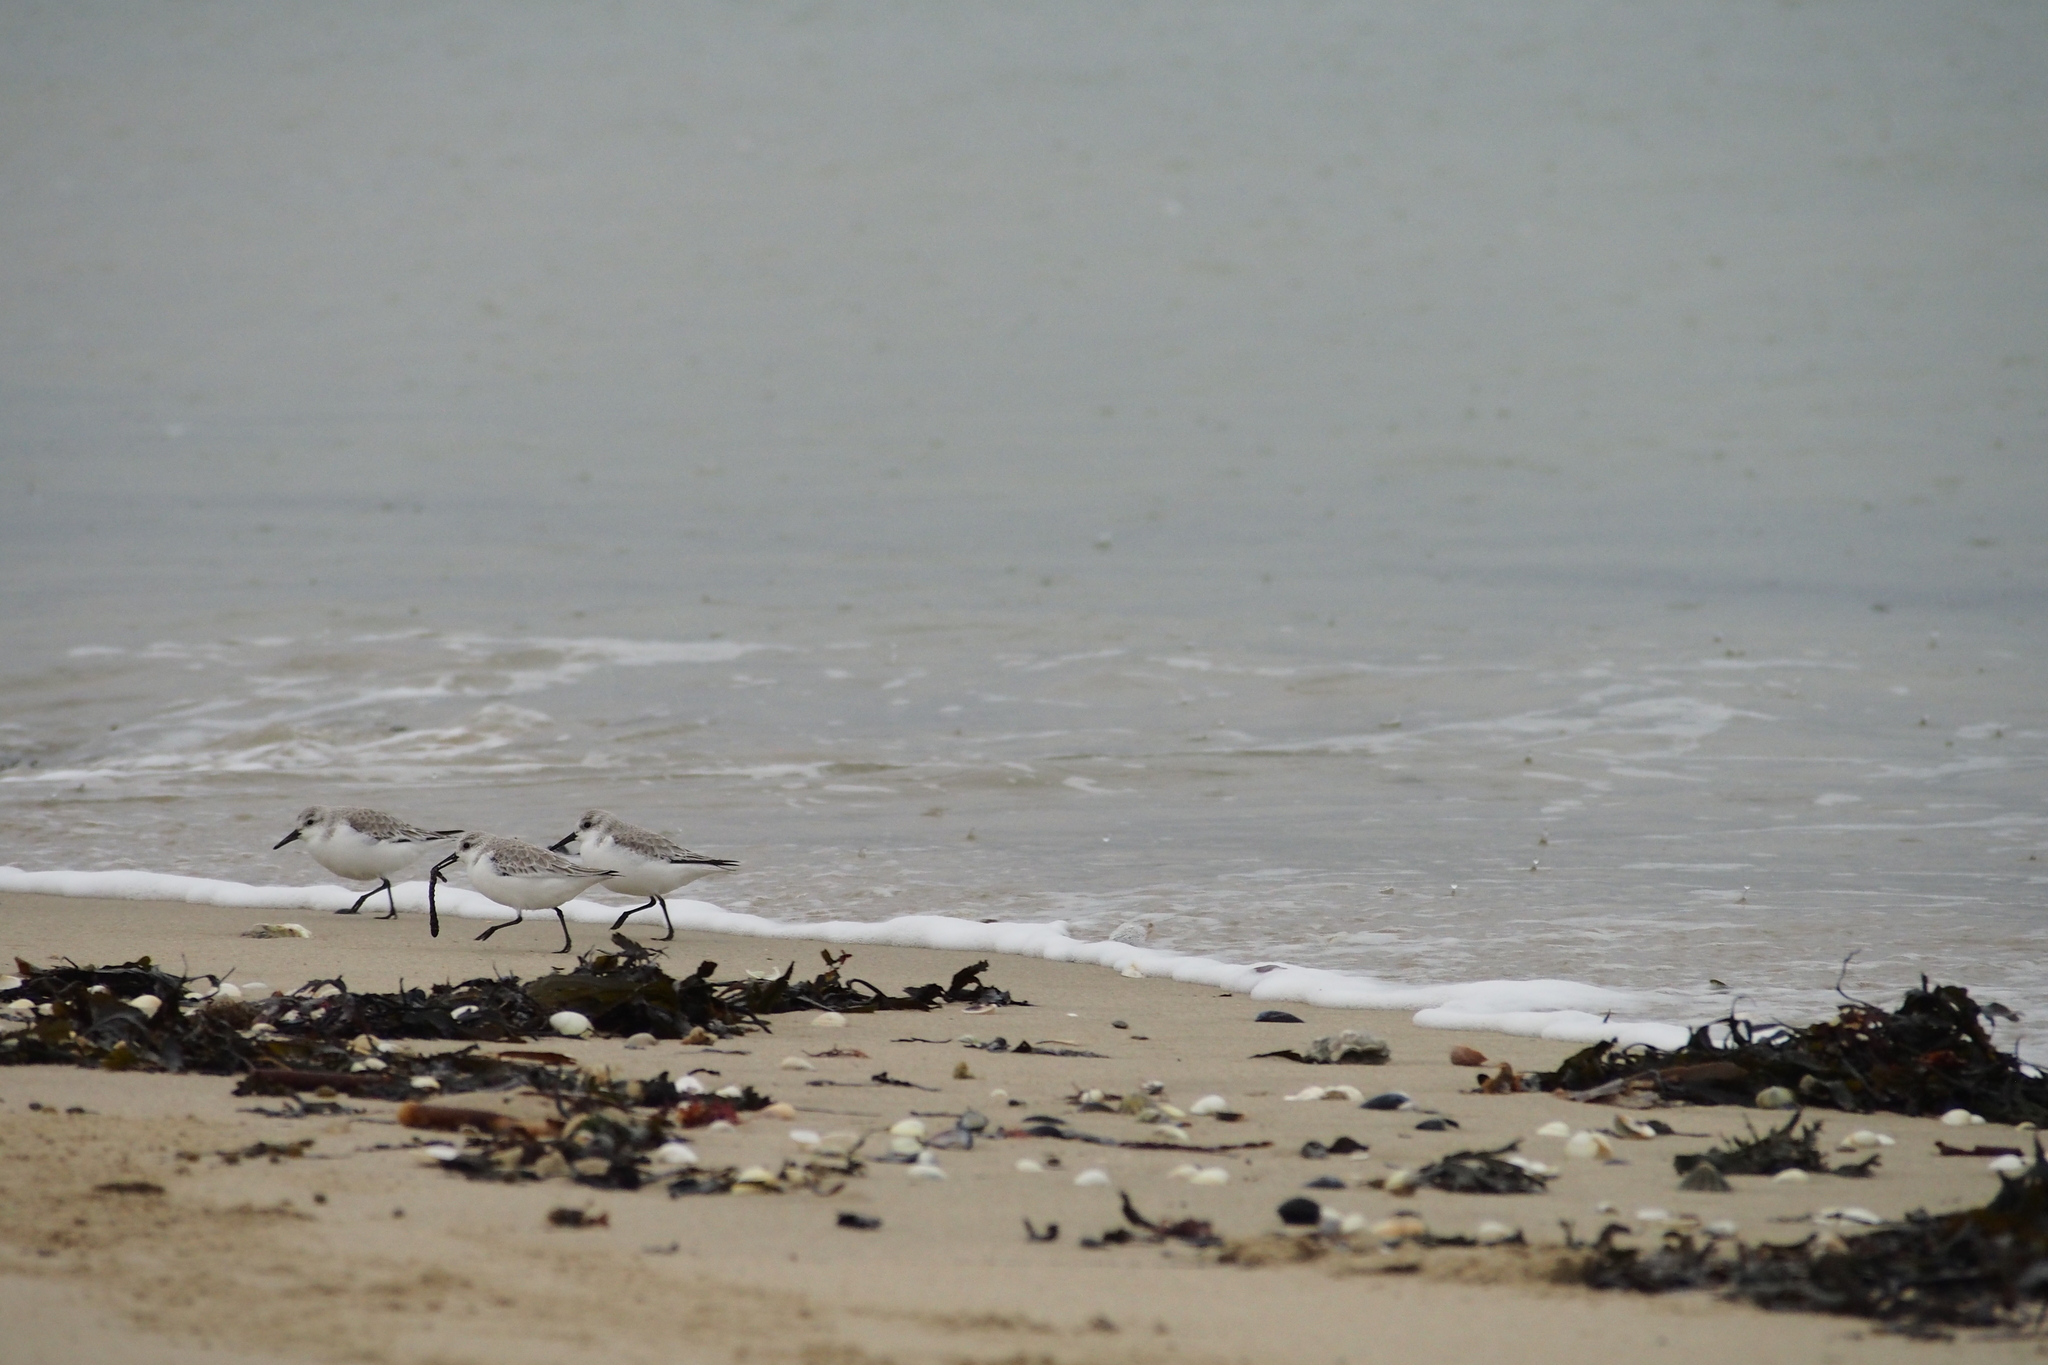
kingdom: Animalia
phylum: Chordata
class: Aves
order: Charadriiformes
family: Scolopacidae
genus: Calidris
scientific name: Calidris alba
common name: Sanderling
